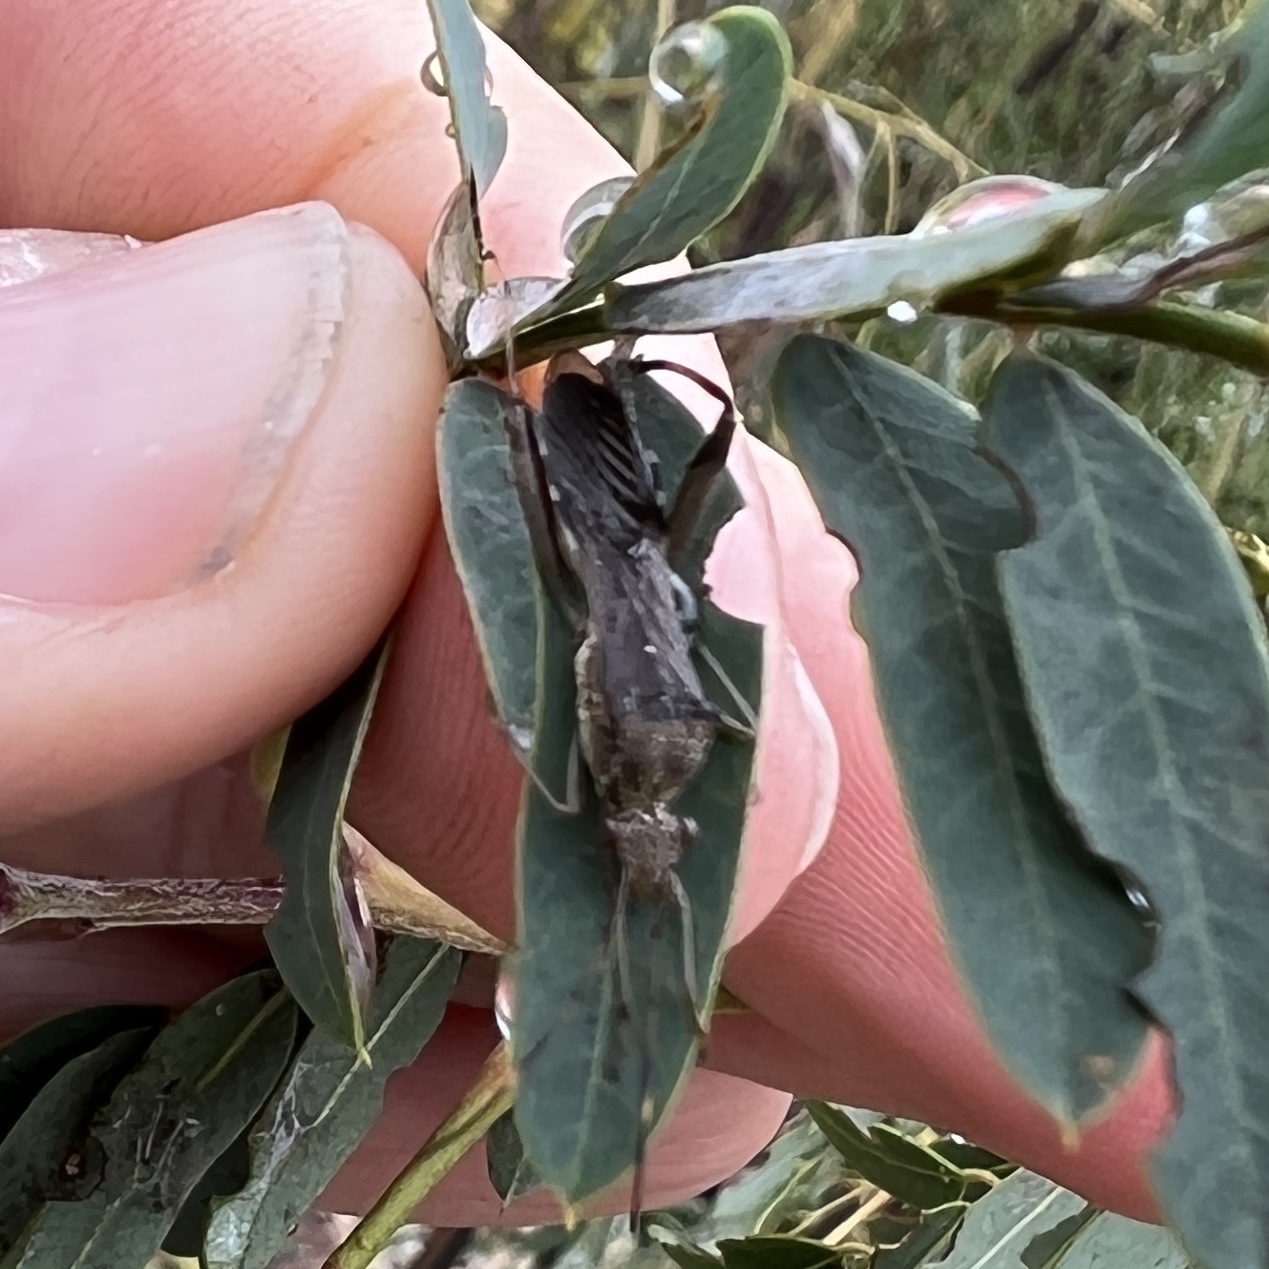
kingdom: Animalia
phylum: Arthropoda
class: Insecta
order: Hemiptera
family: Alydidae
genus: Hyalymenus
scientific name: Hyalymenus tarsatus
